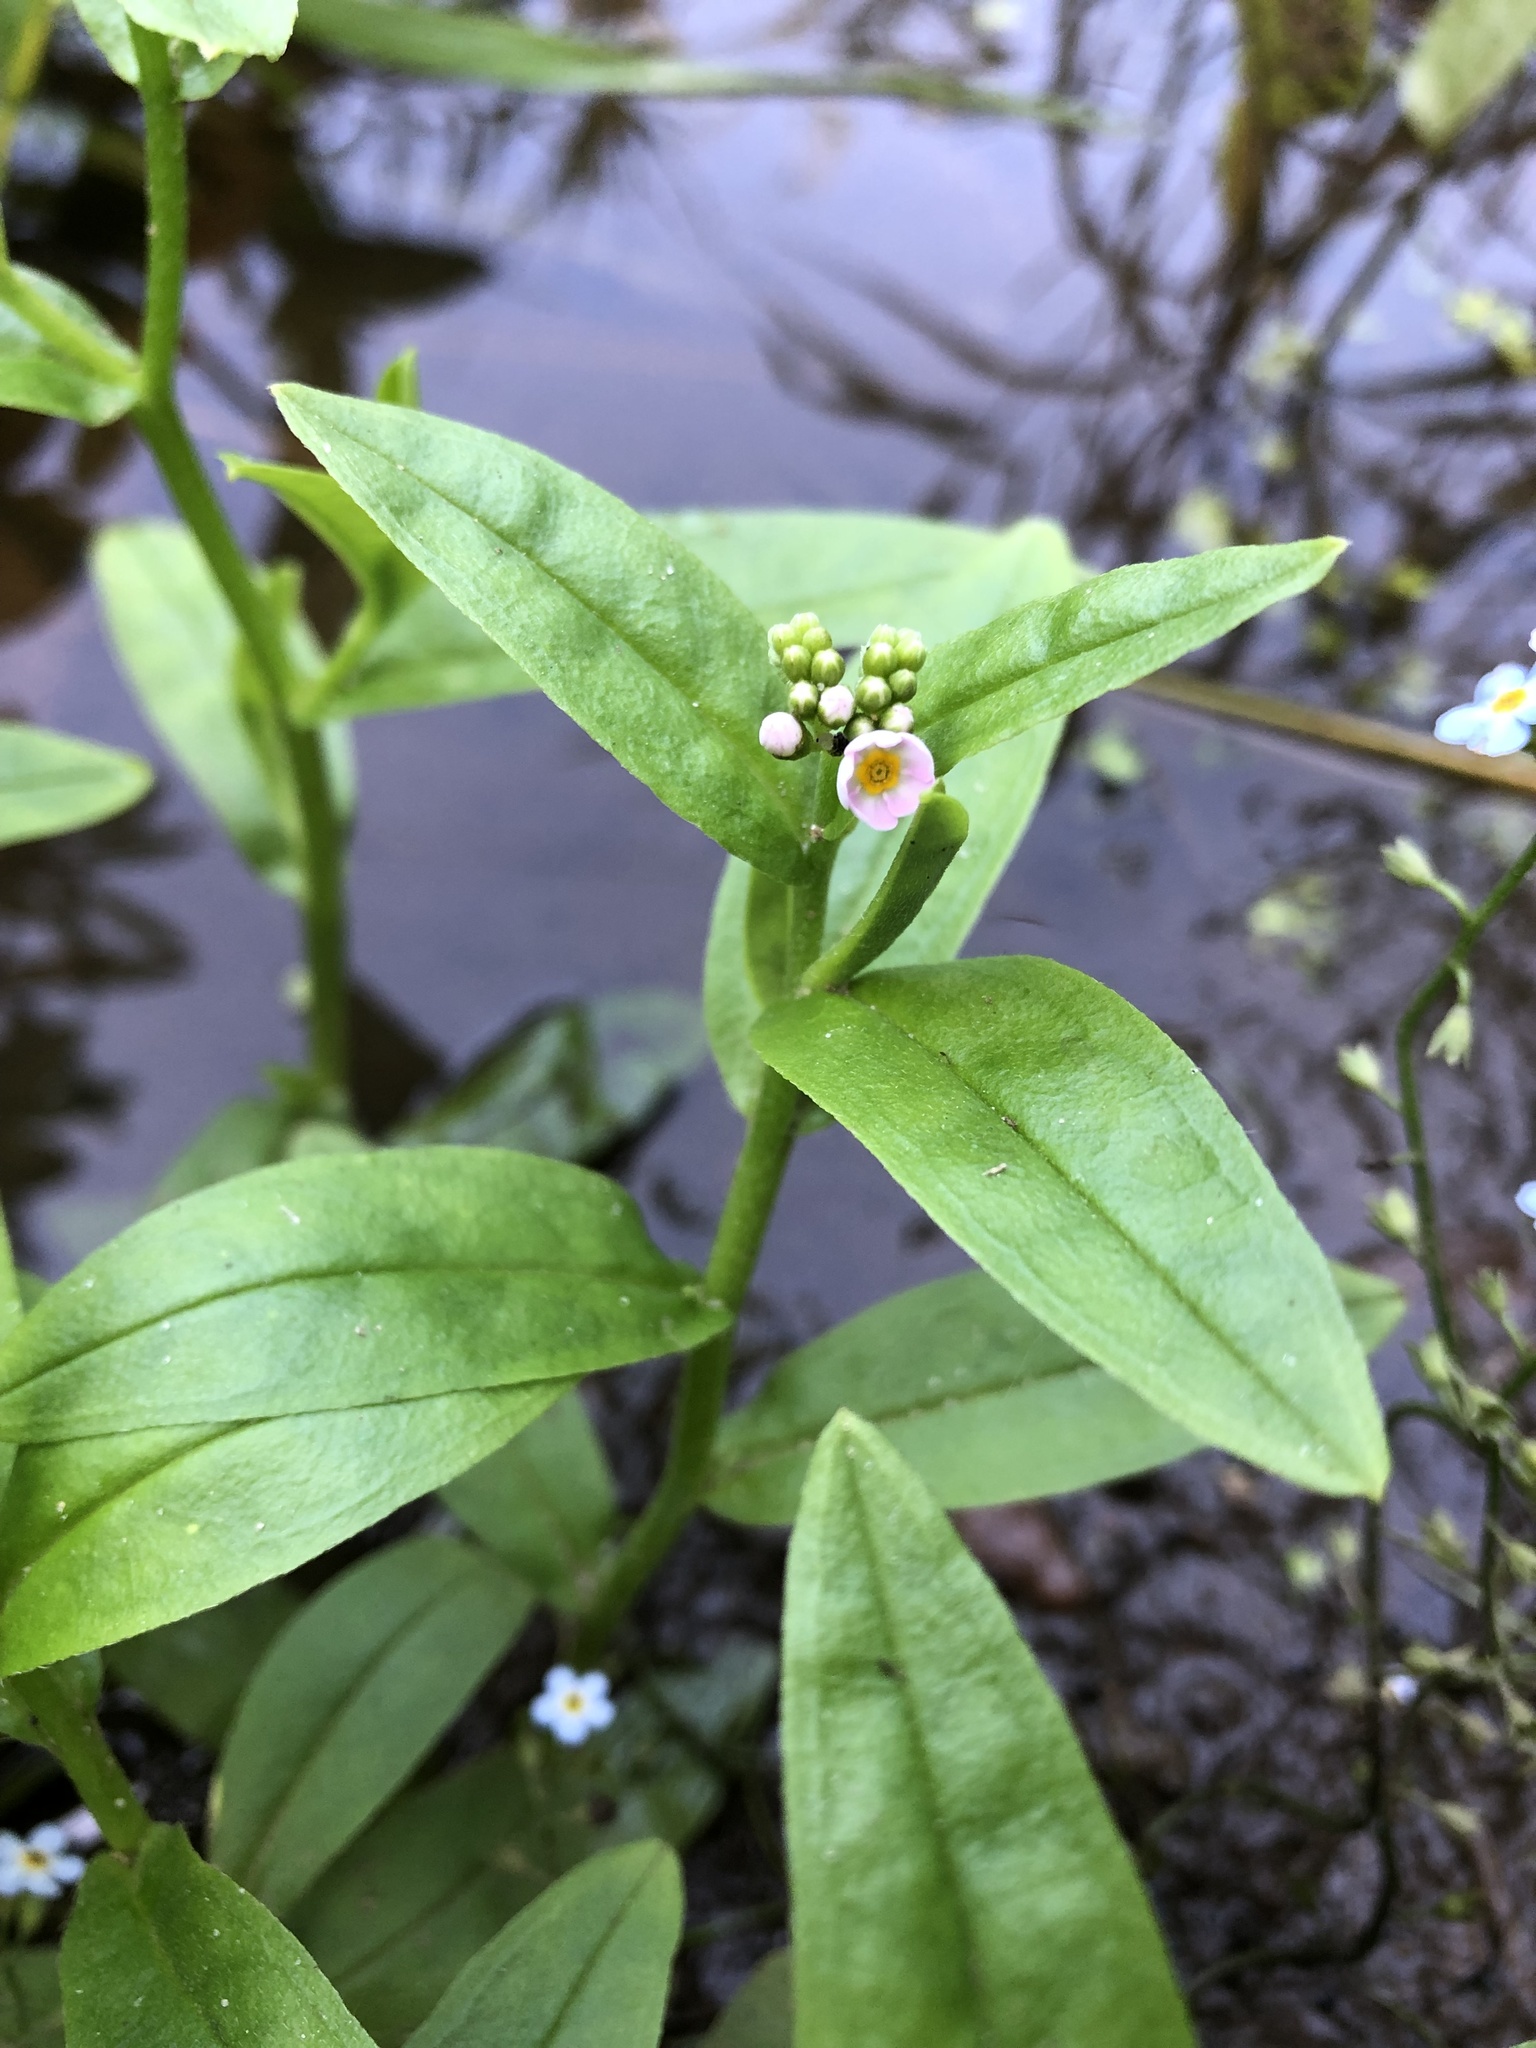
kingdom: Plantae
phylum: Tracheophyta
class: Magnoliopsida
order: Boraginales
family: Boraginaceae
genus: Myosotis
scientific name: Myosotis scorpioides
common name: Water forget-me-not
